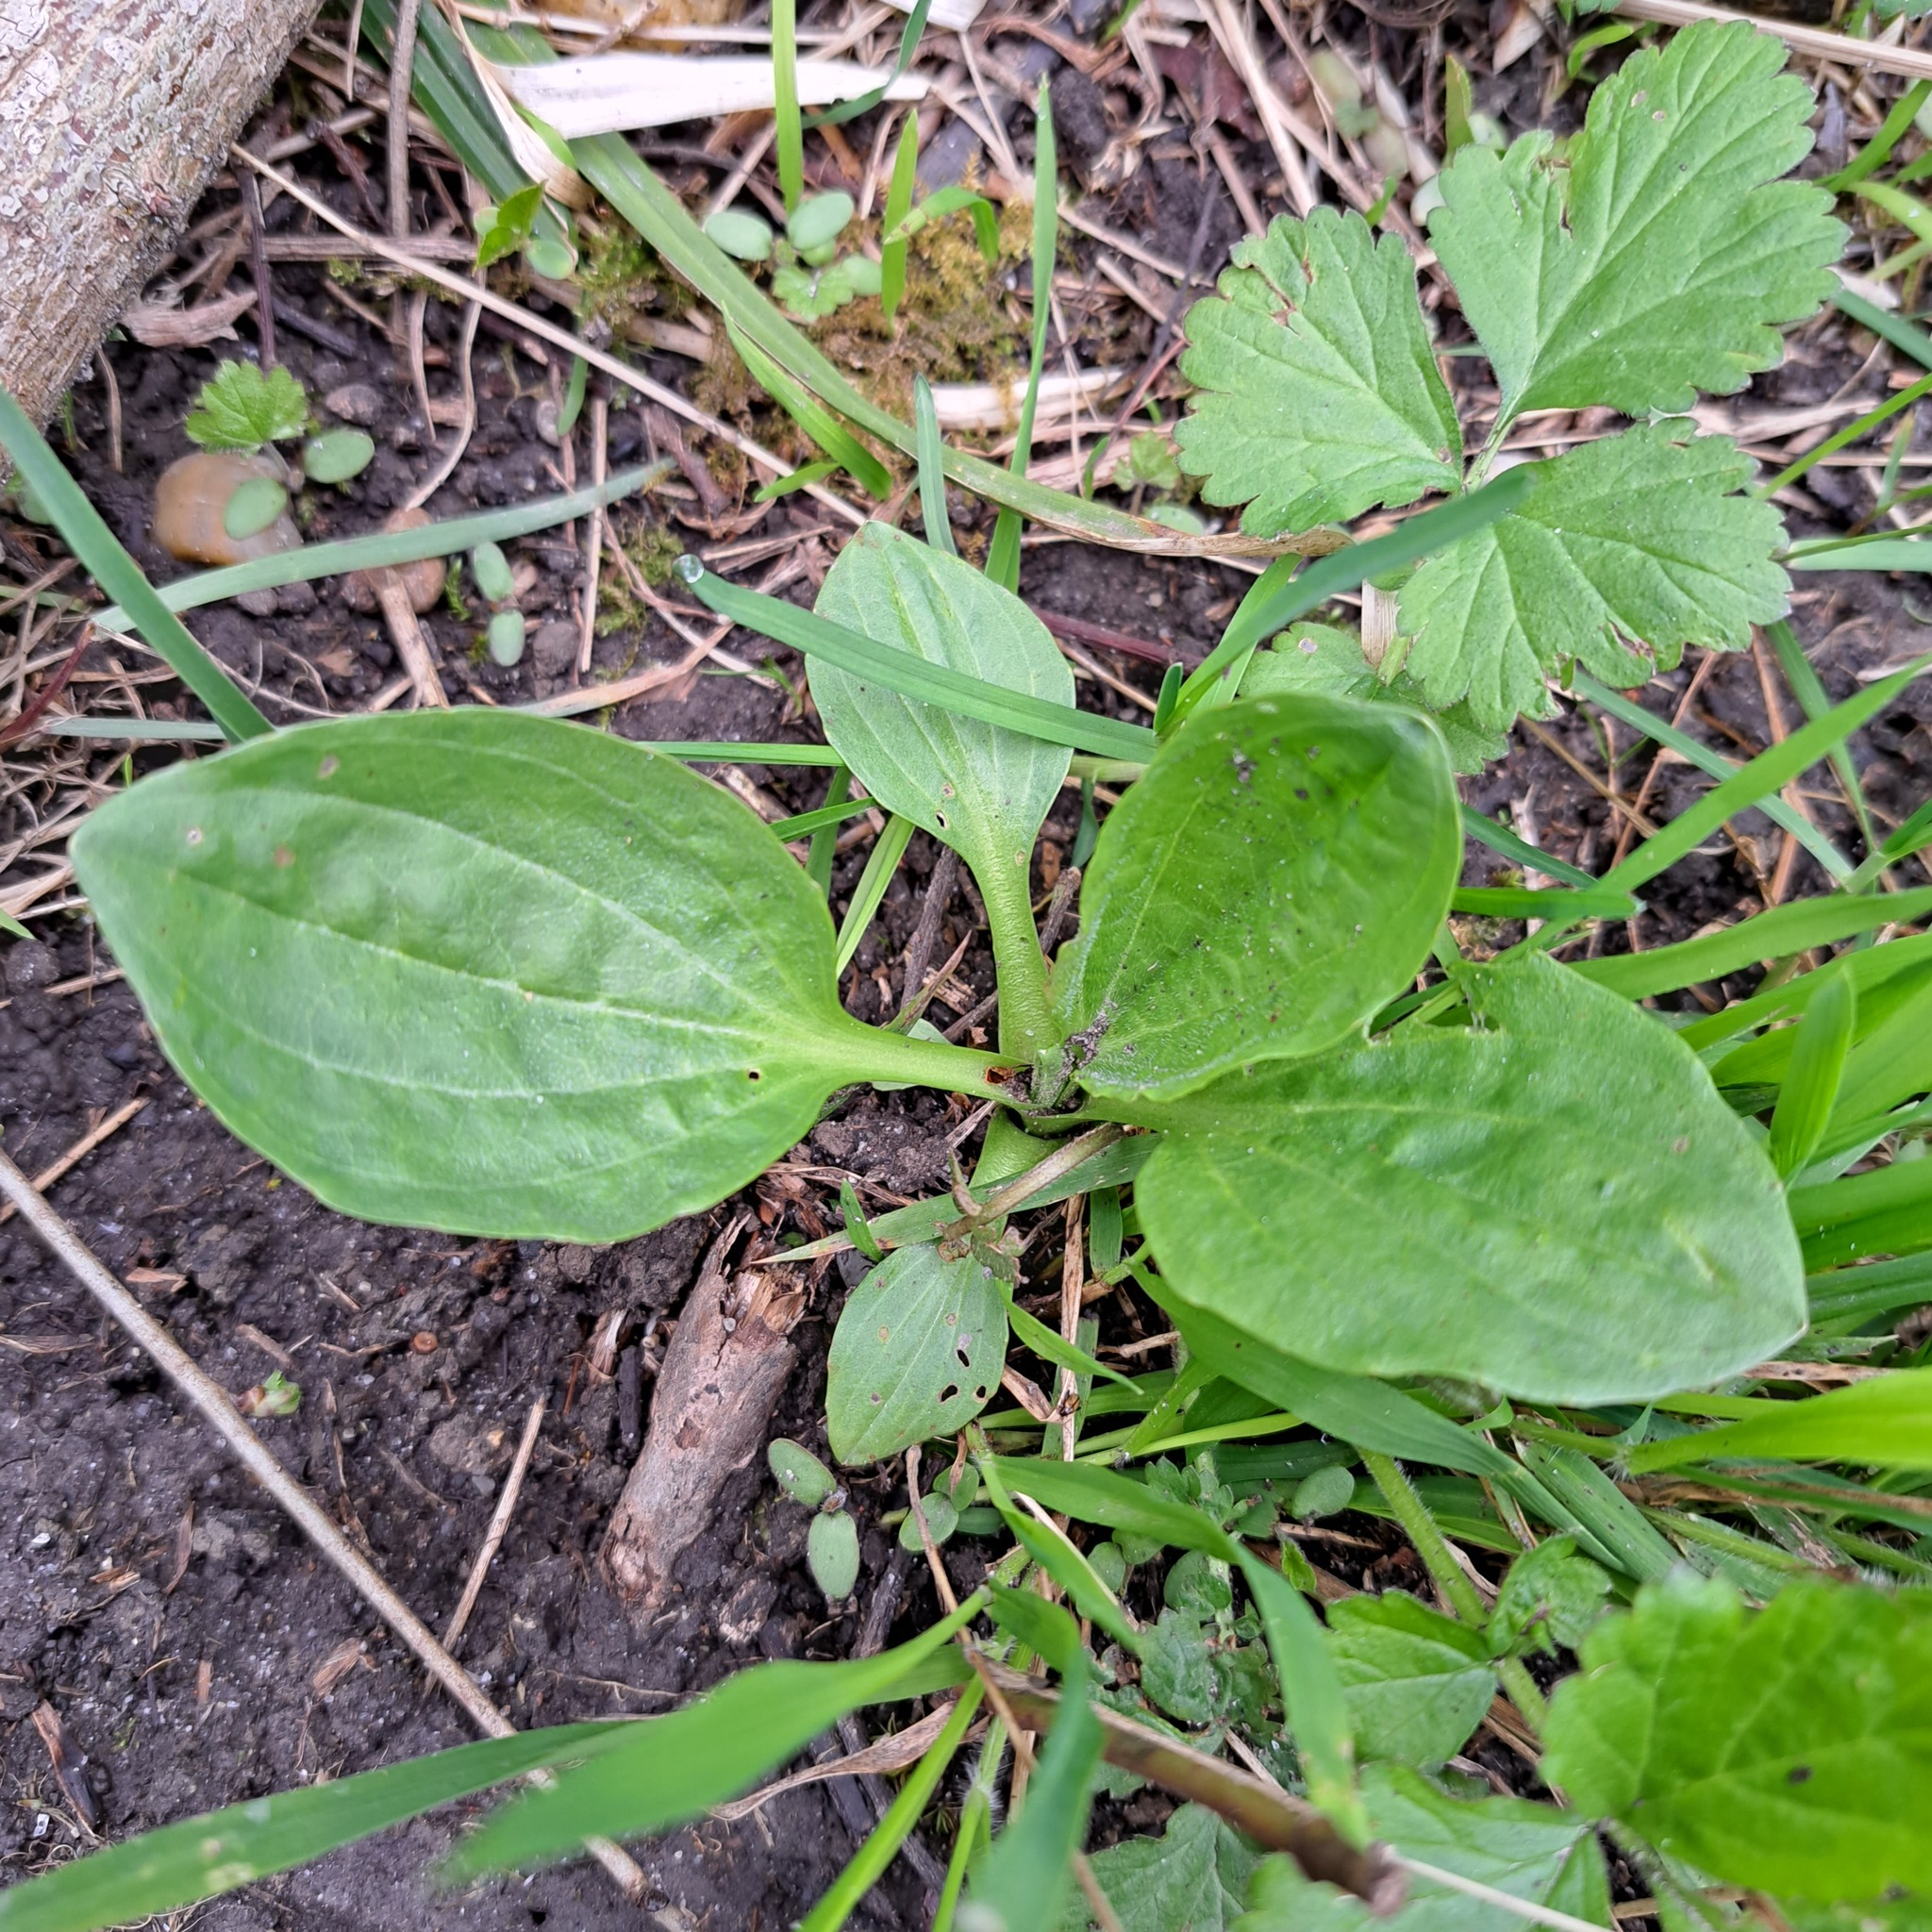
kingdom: Plantae
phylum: Tracheophyta
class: Magnoliopsida
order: Lamiales
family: Plantaginaceae
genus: Plantago
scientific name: Plantago major
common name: Common plantain
